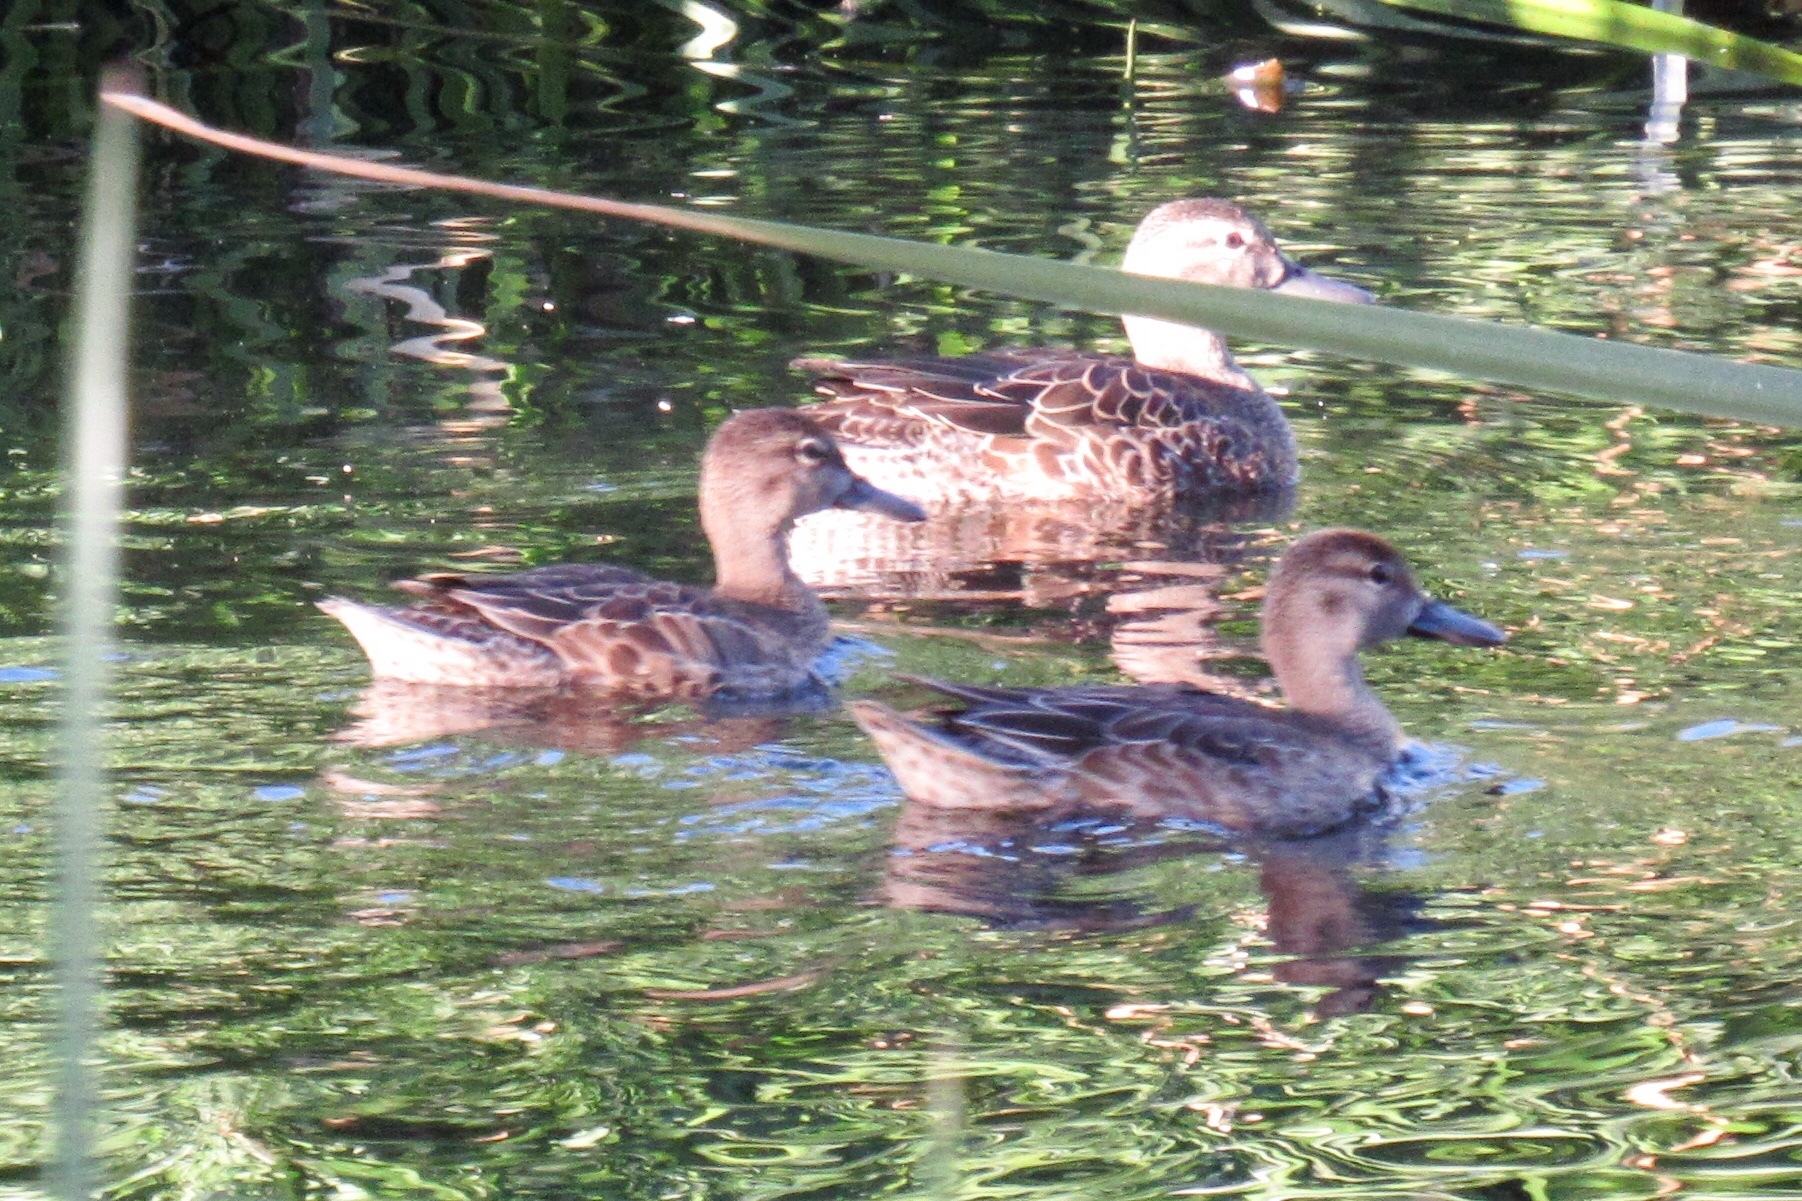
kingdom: Animalia
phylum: Chordata
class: Aves
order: Anseriformes
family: Anatidae
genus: Spatula
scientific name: Spatula cyanoptera
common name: Cinnamon teal
